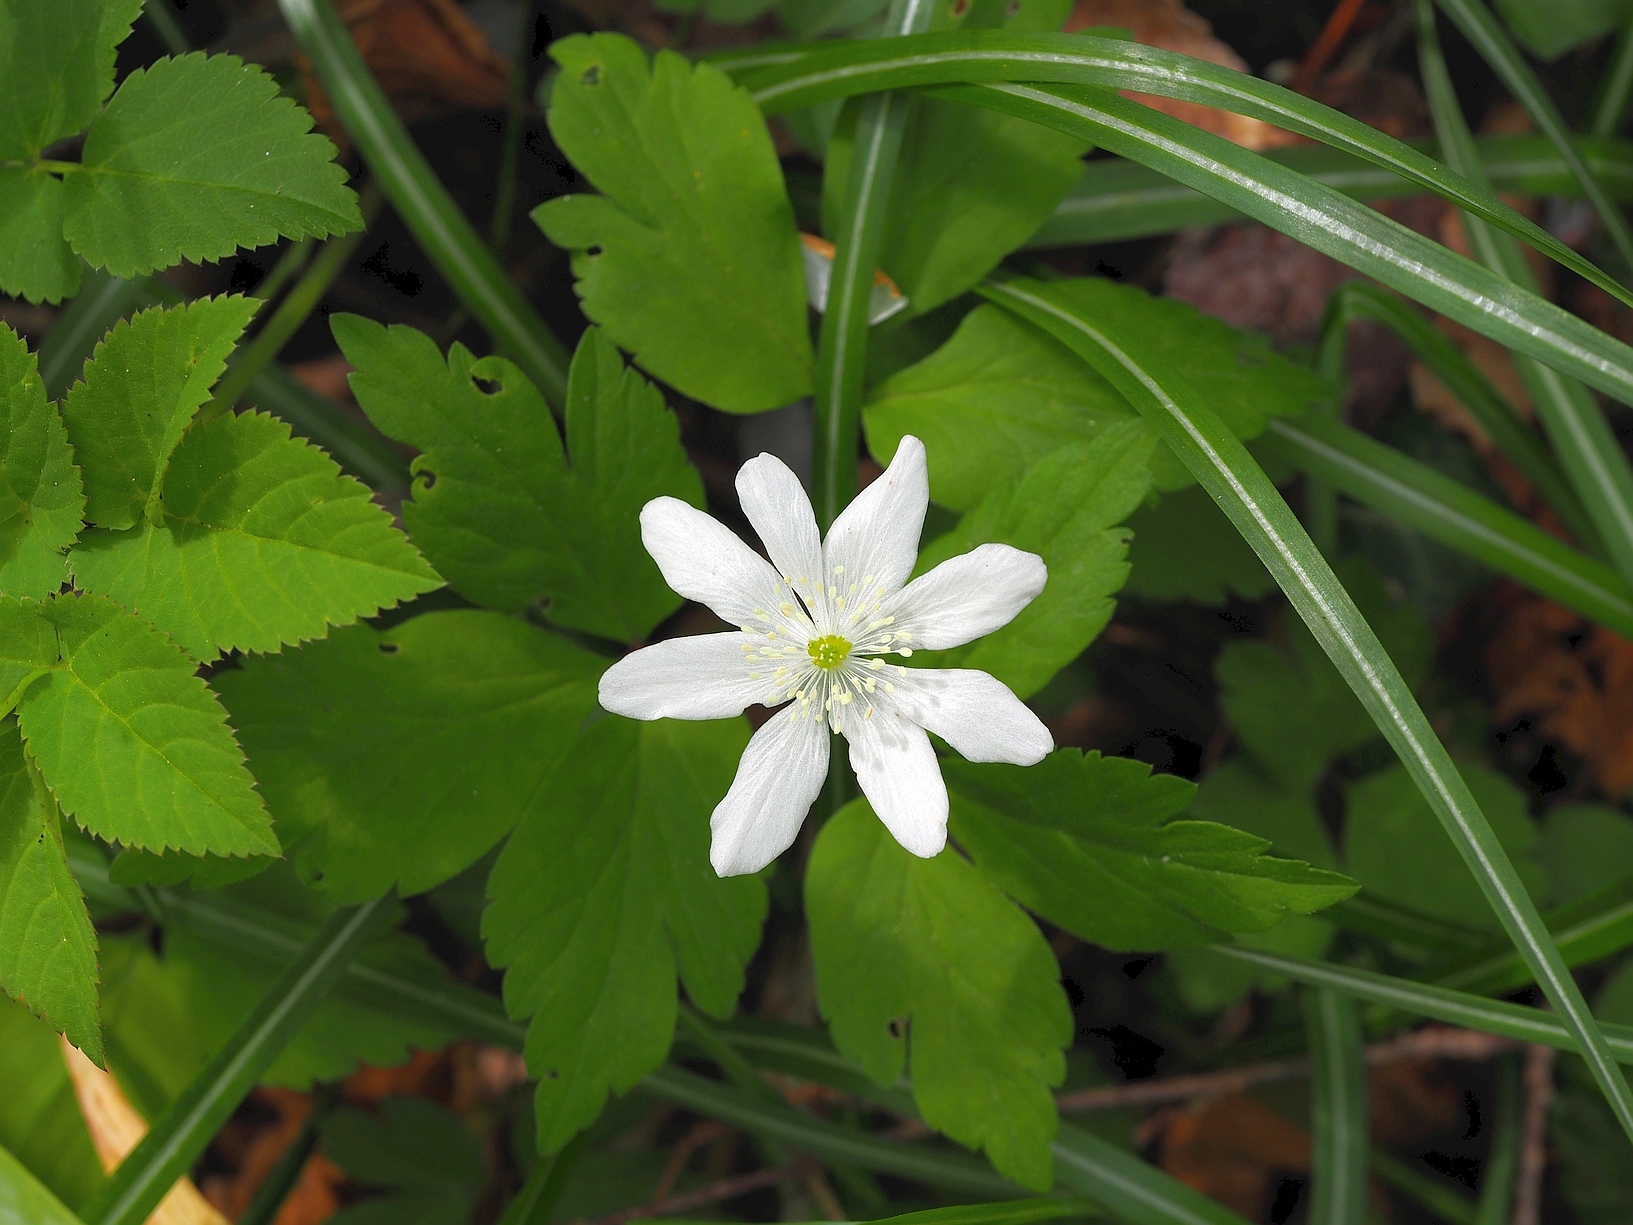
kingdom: Plantae
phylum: Tracheophyta
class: Magnoliopsida
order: Ranunculales
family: Ranunculaceae
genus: Anemone
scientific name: Anemone pittonii
